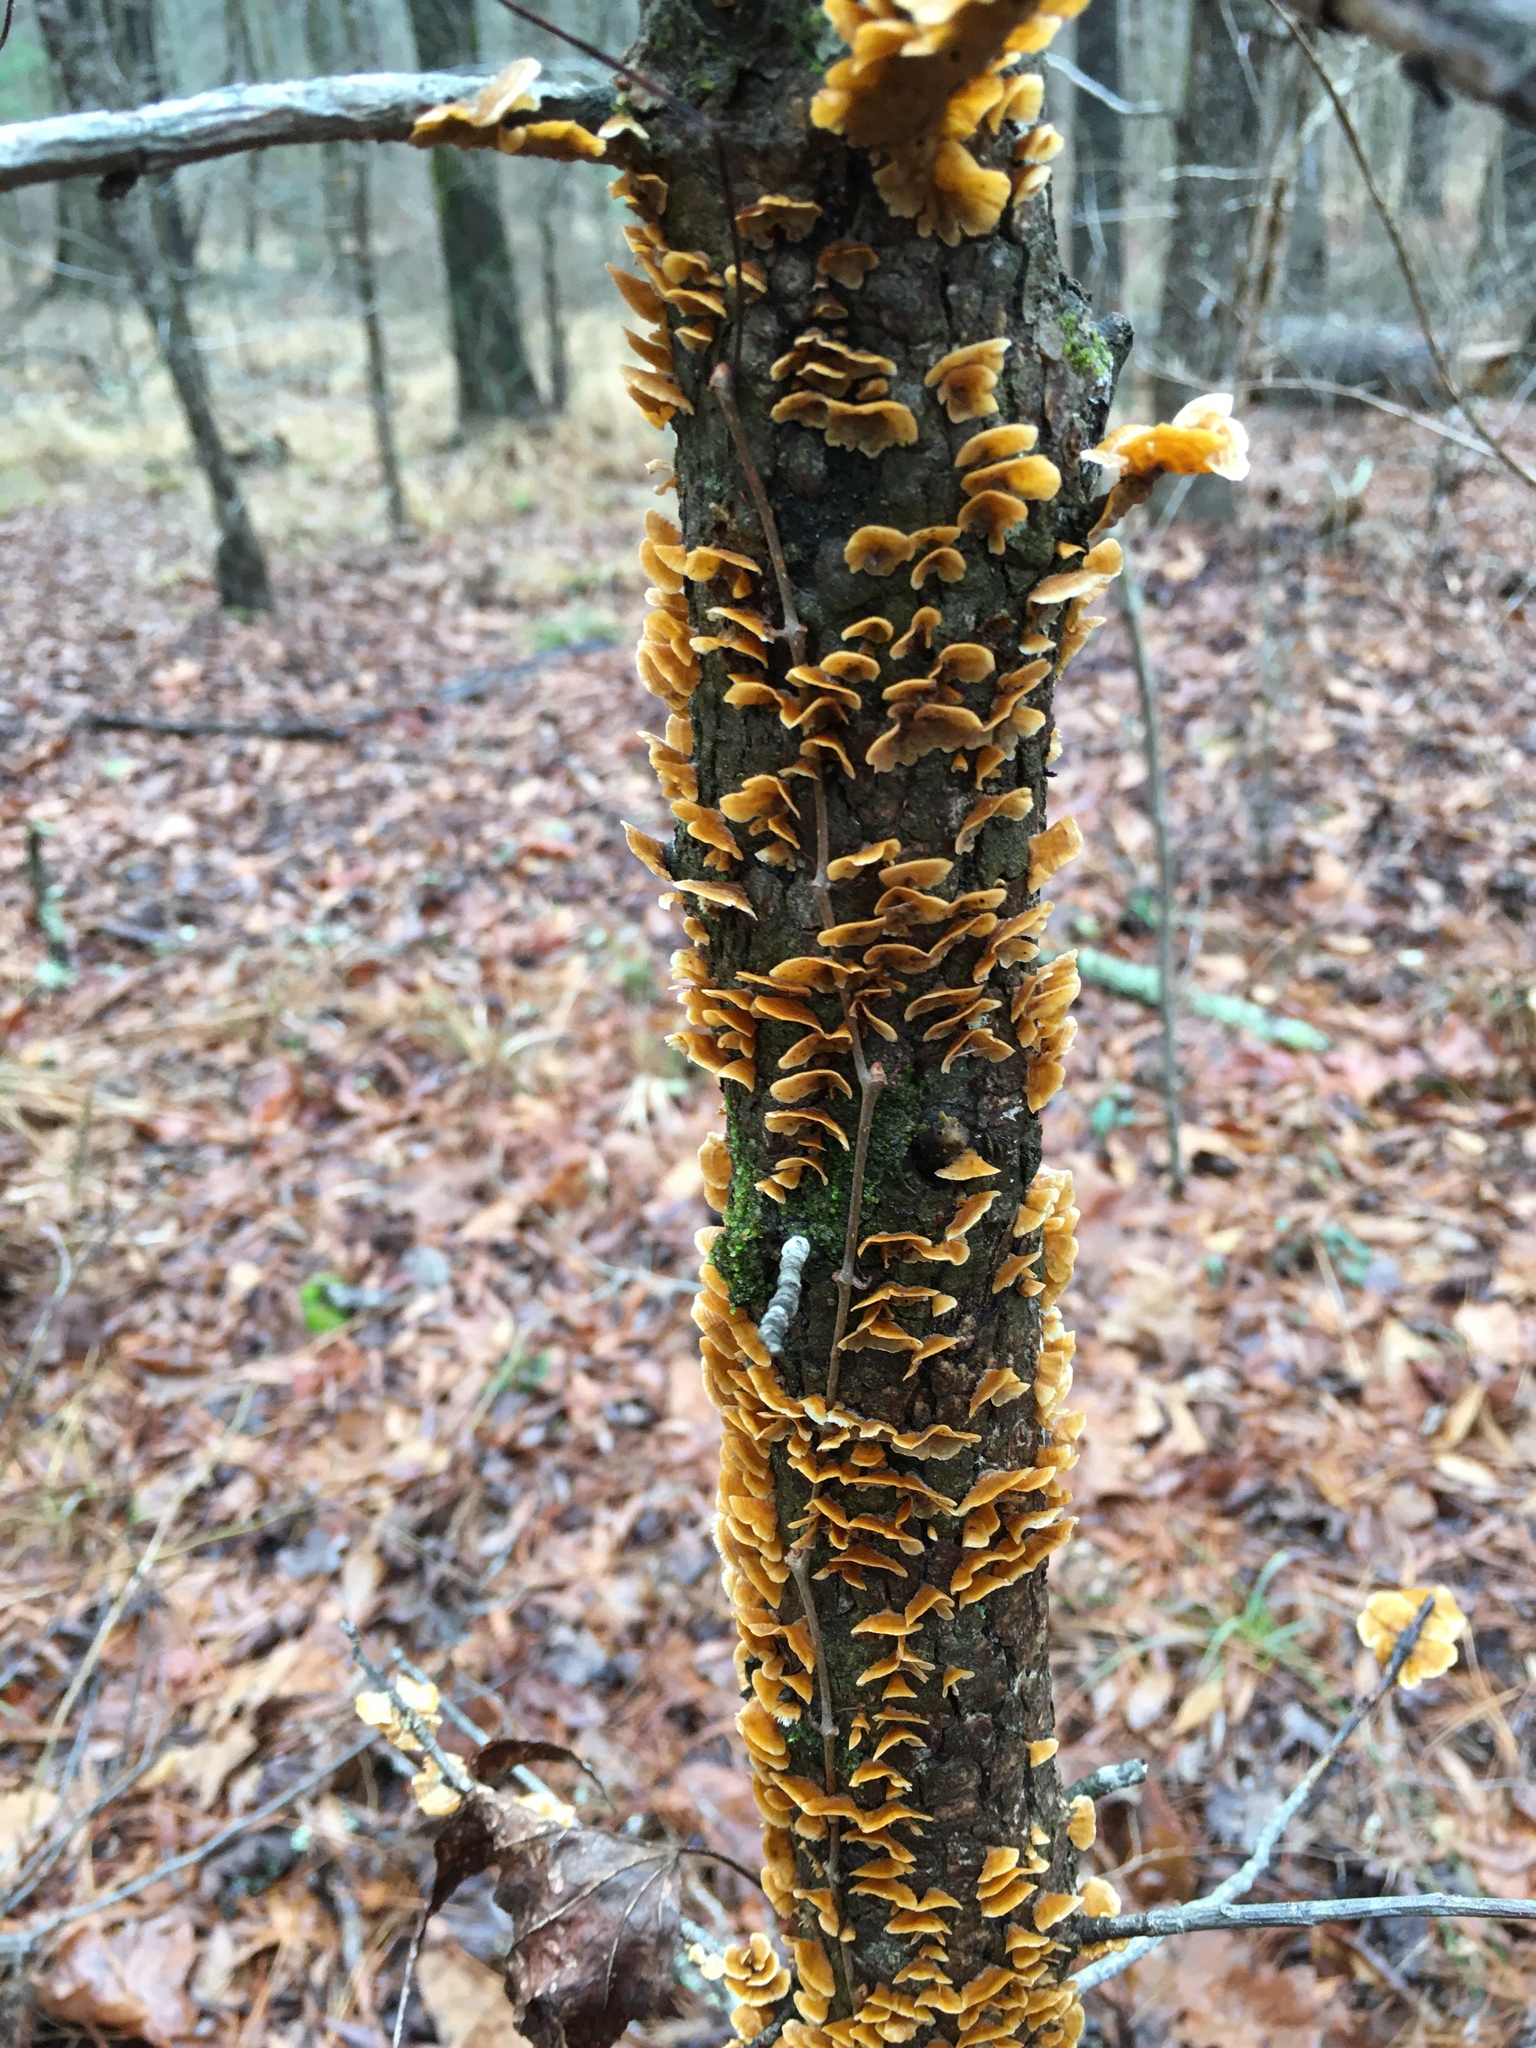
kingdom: Fungi
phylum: Basidiomycota
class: Agaricomycetes
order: Russulales
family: Stereaceae
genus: Stereum
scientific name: Stereum complicatum
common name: Crowded parchment
